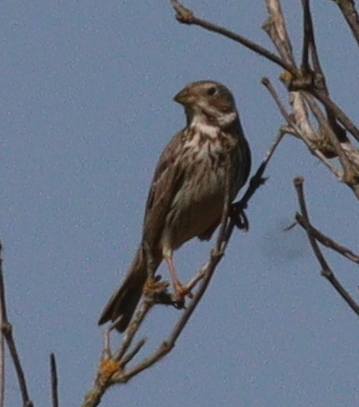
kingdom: Animalia
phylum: Chordata
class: Aves
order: Passeriformes
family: Emberizidae
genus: Emberiza
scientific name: Emberiza calandra
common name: Corn bunting
